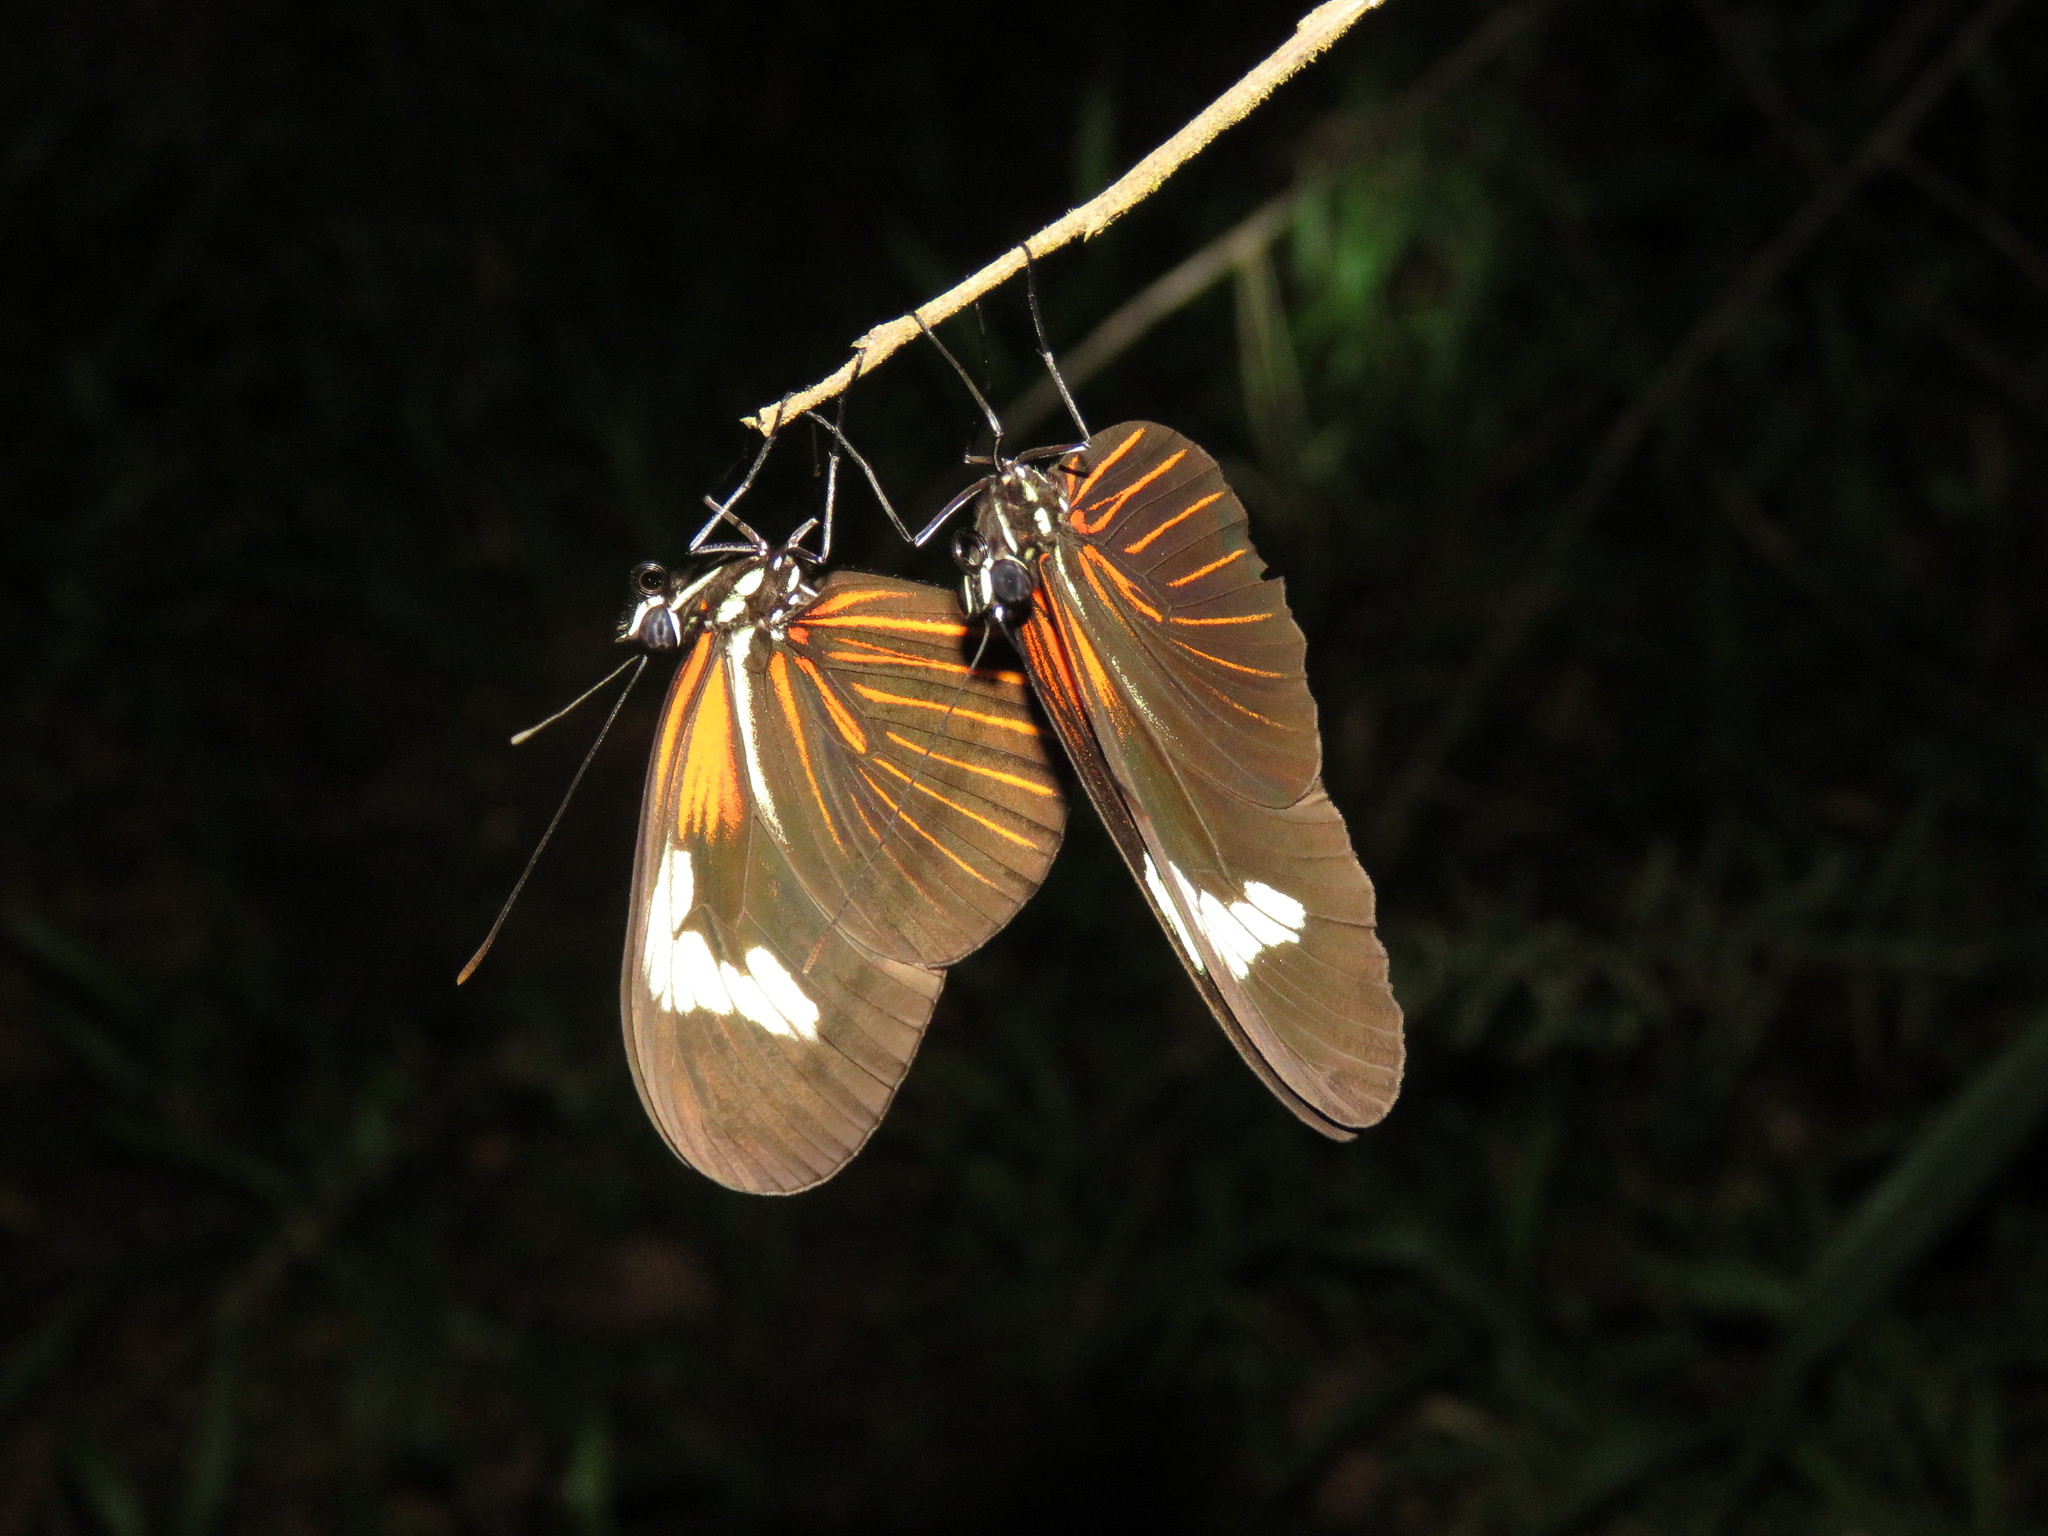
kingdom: Animalia
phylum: Arthropoda
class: Insecta
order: Lepidoptera
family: Nymphalidae
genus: Heliconius
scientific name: Heliconius erato
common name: Common patch longwing
